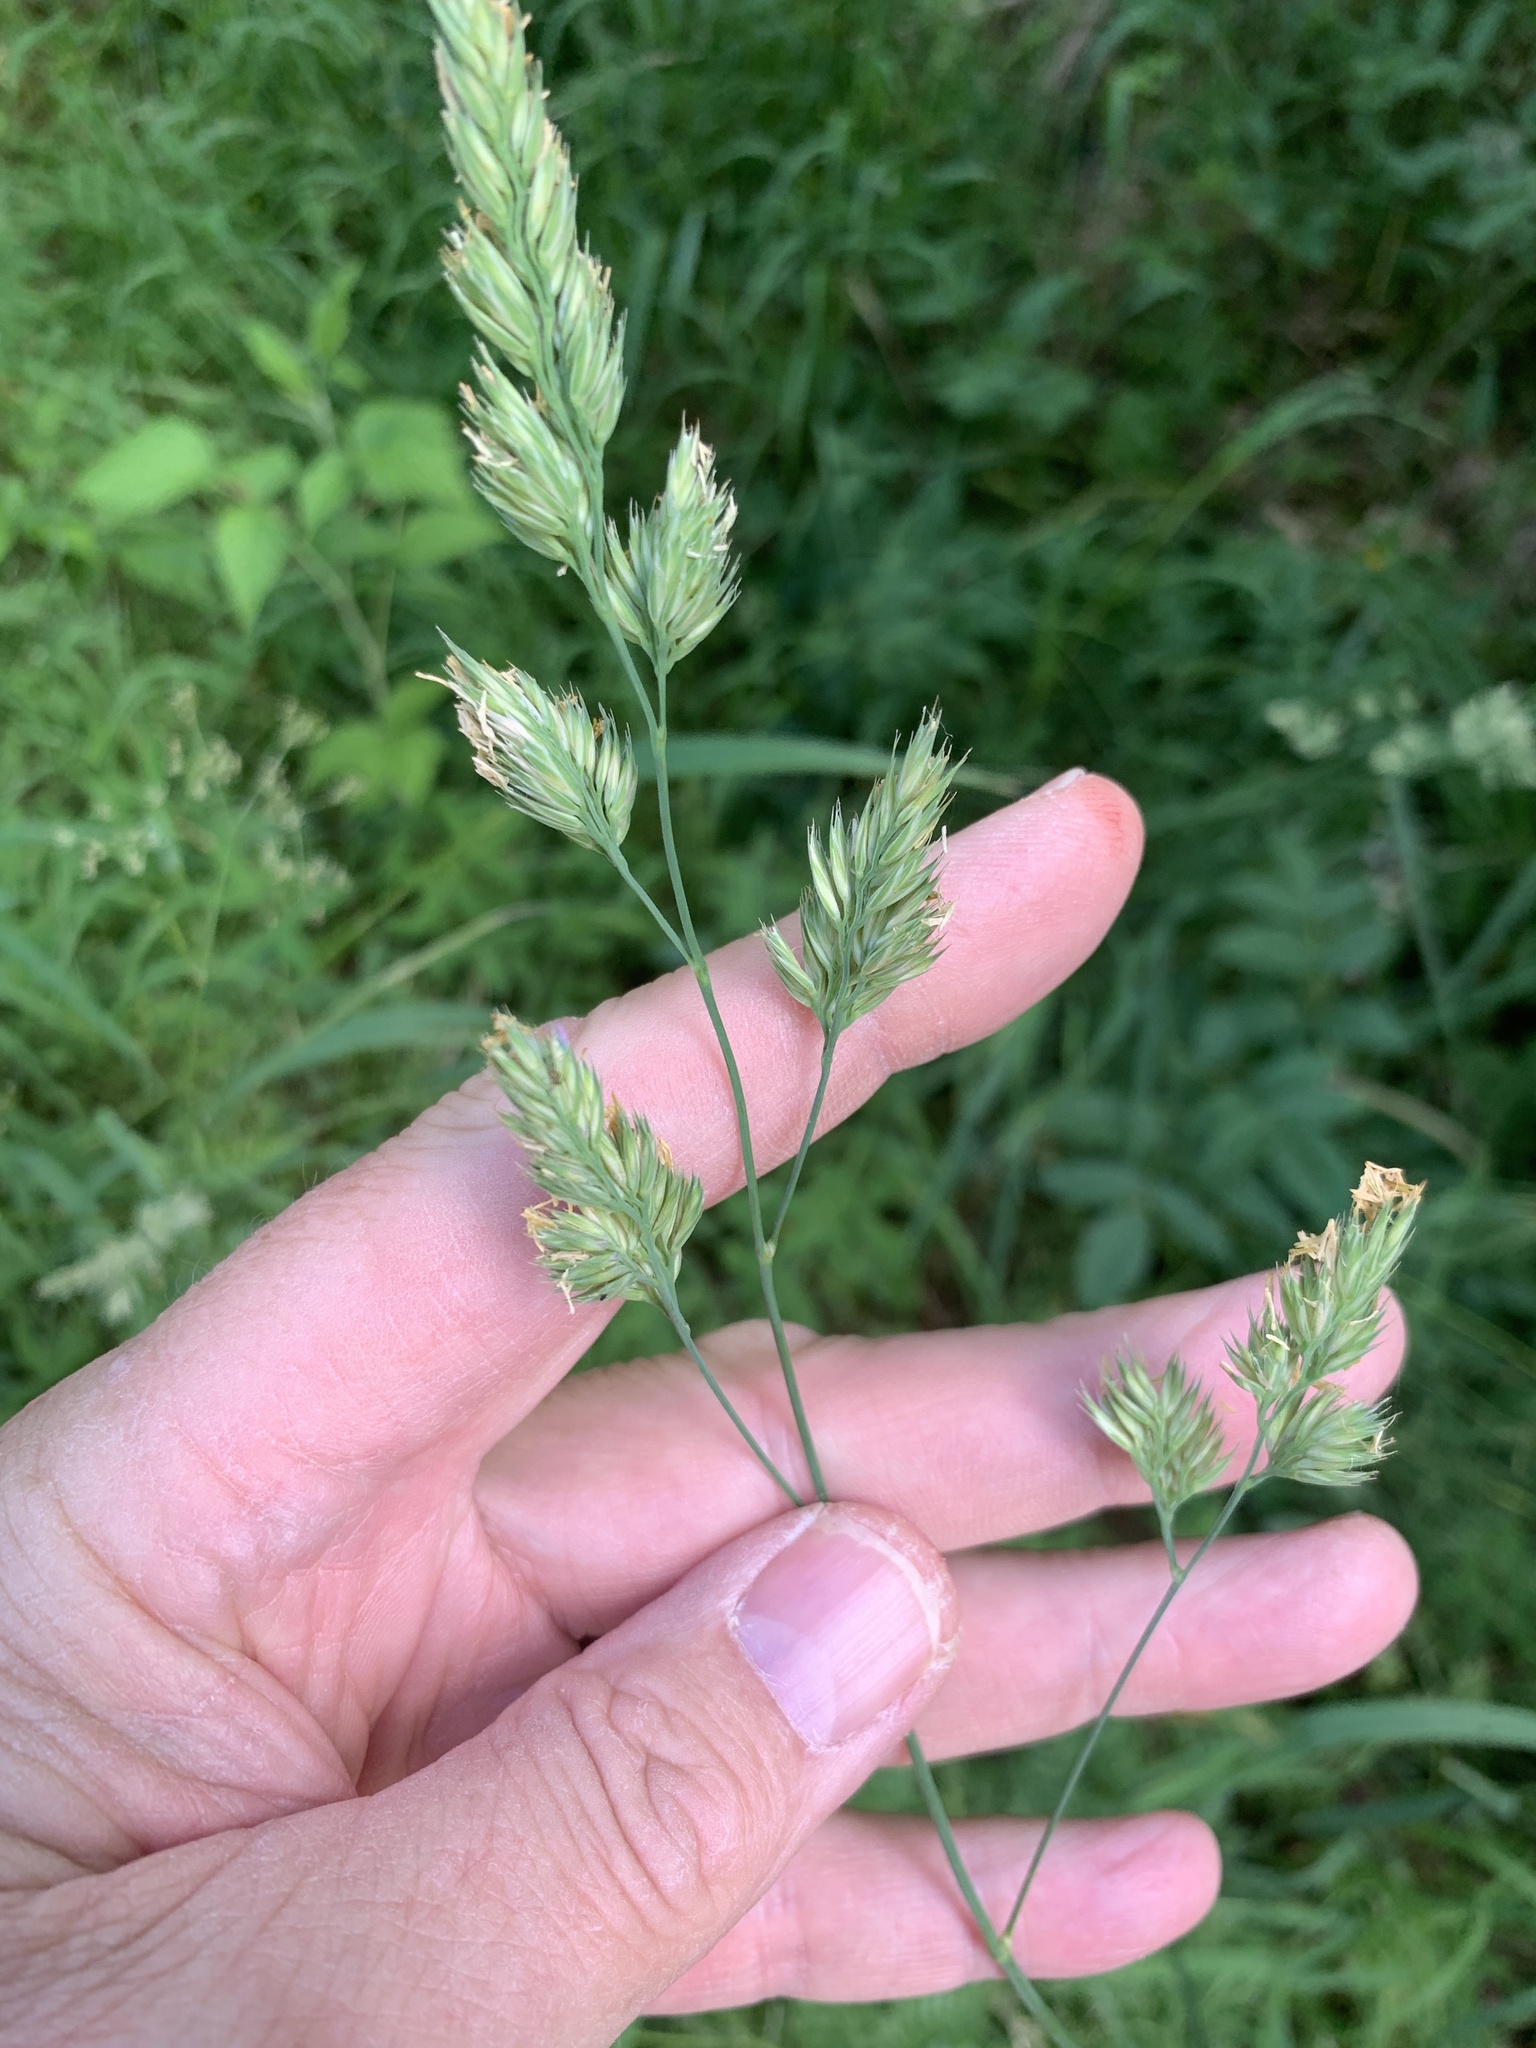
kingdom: Plantae
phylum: Tracheophyta
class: Liliopsida
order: Poales
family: Poaceae
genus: Dactylis
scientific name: Dactylis glomerata
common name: Orchardgrass
